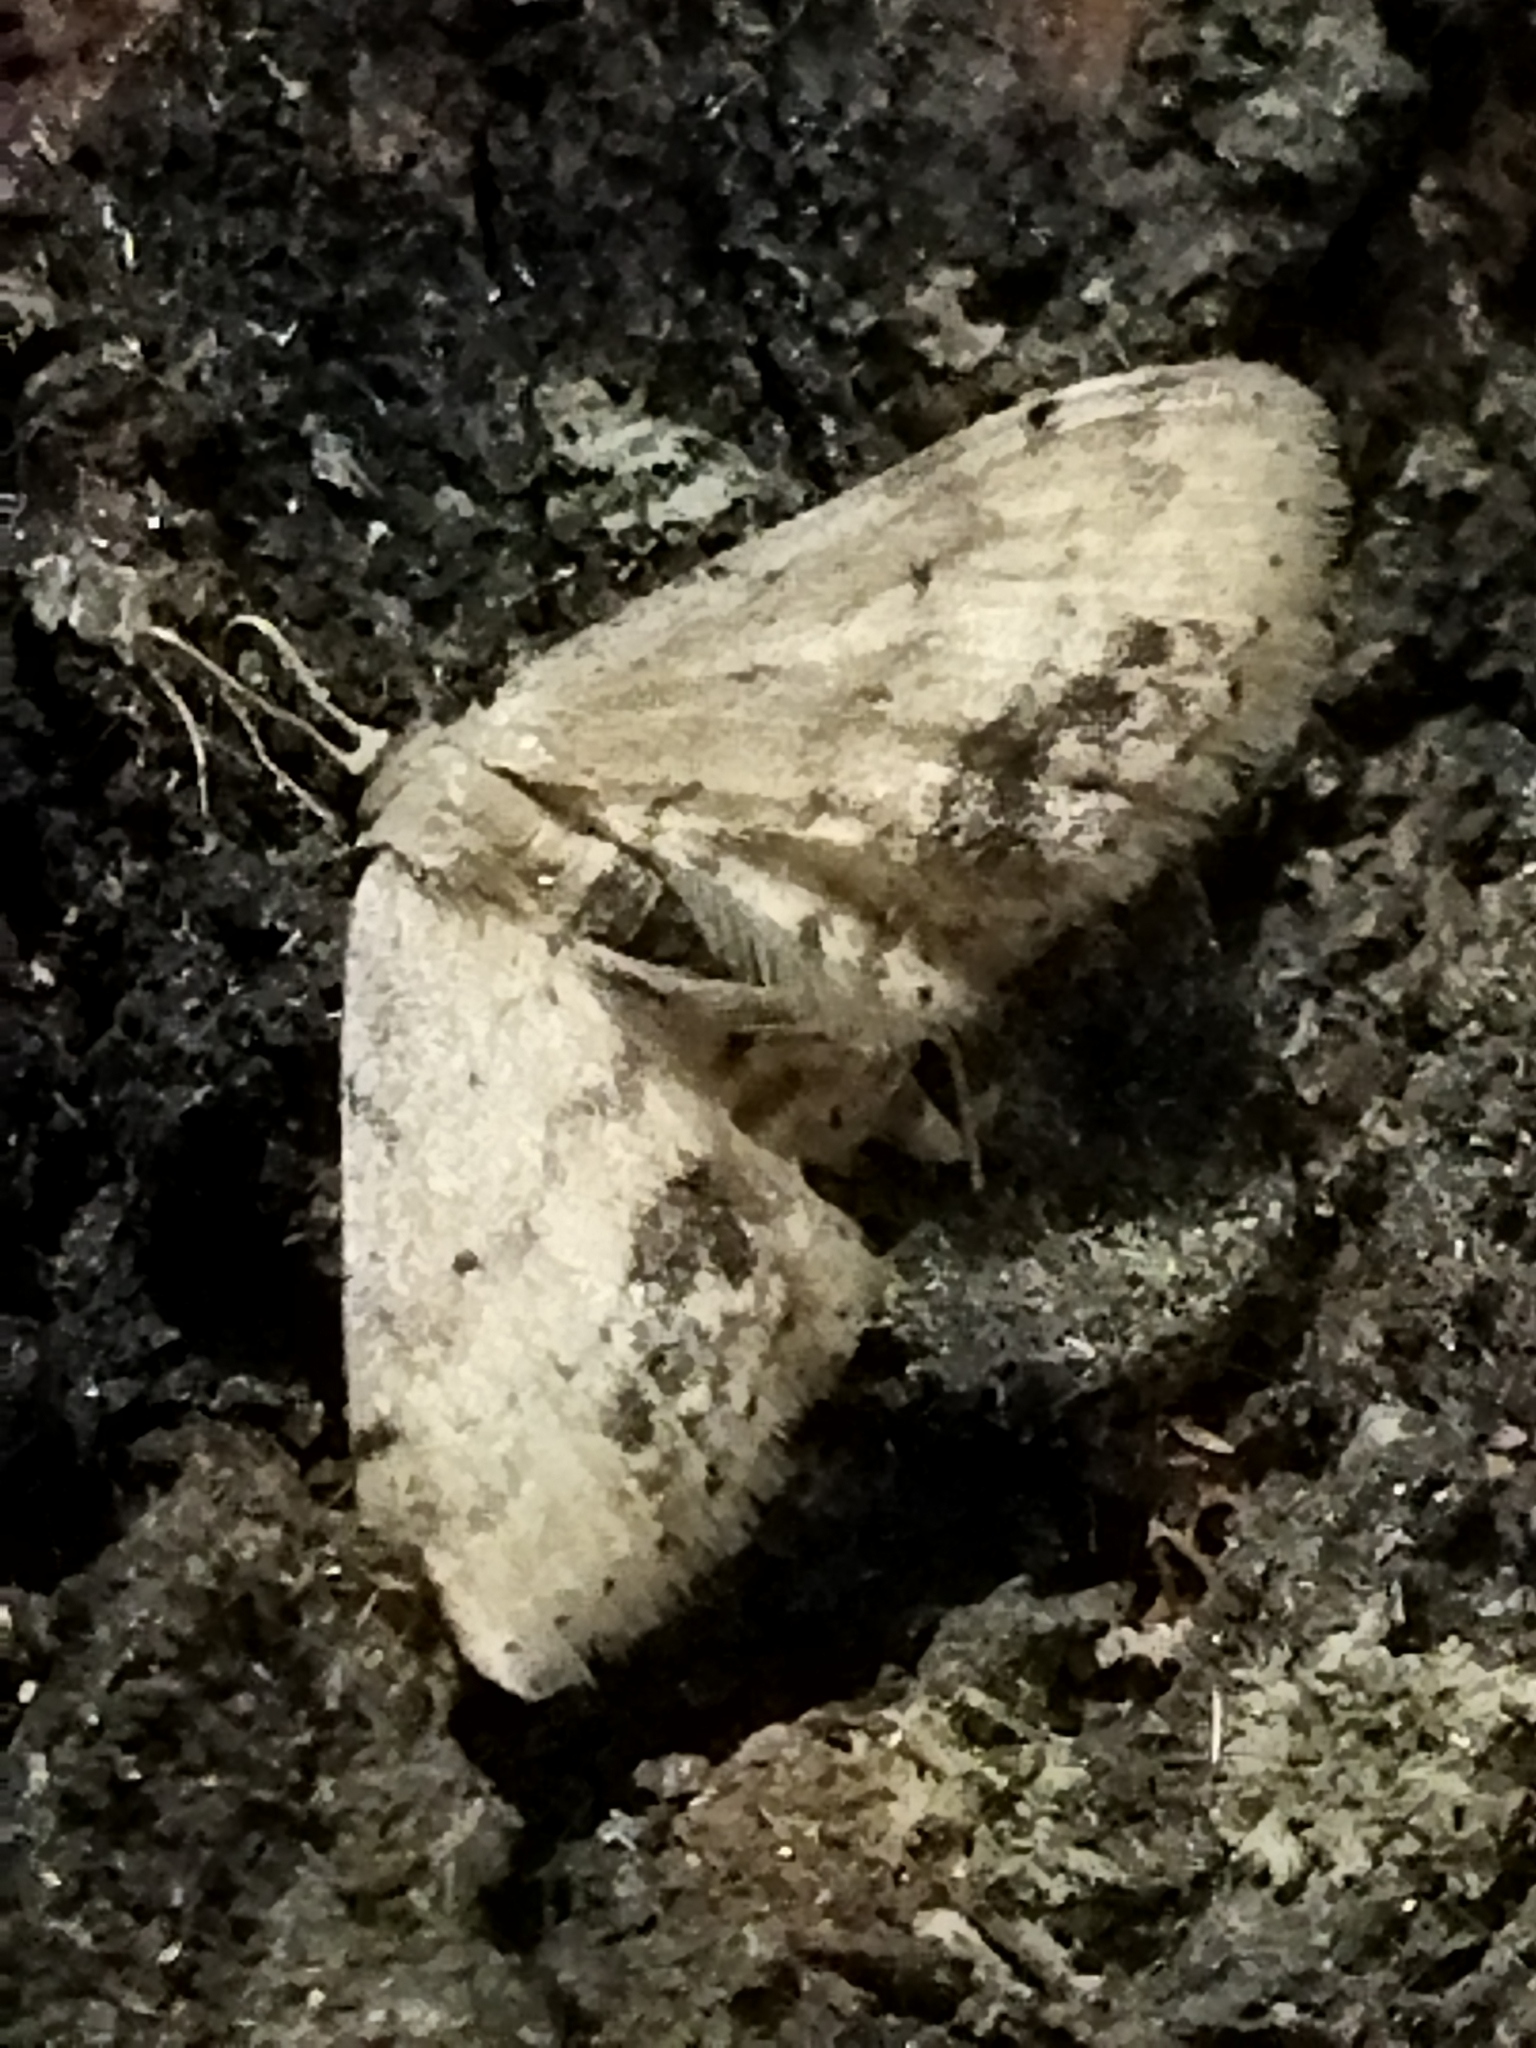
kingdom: Animalia
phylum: Arthropoda
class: Insecta
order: Lepidoptera
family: Geometridae
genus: Idaea
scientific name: Idaea dimidiata
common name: Single-dotted wave
